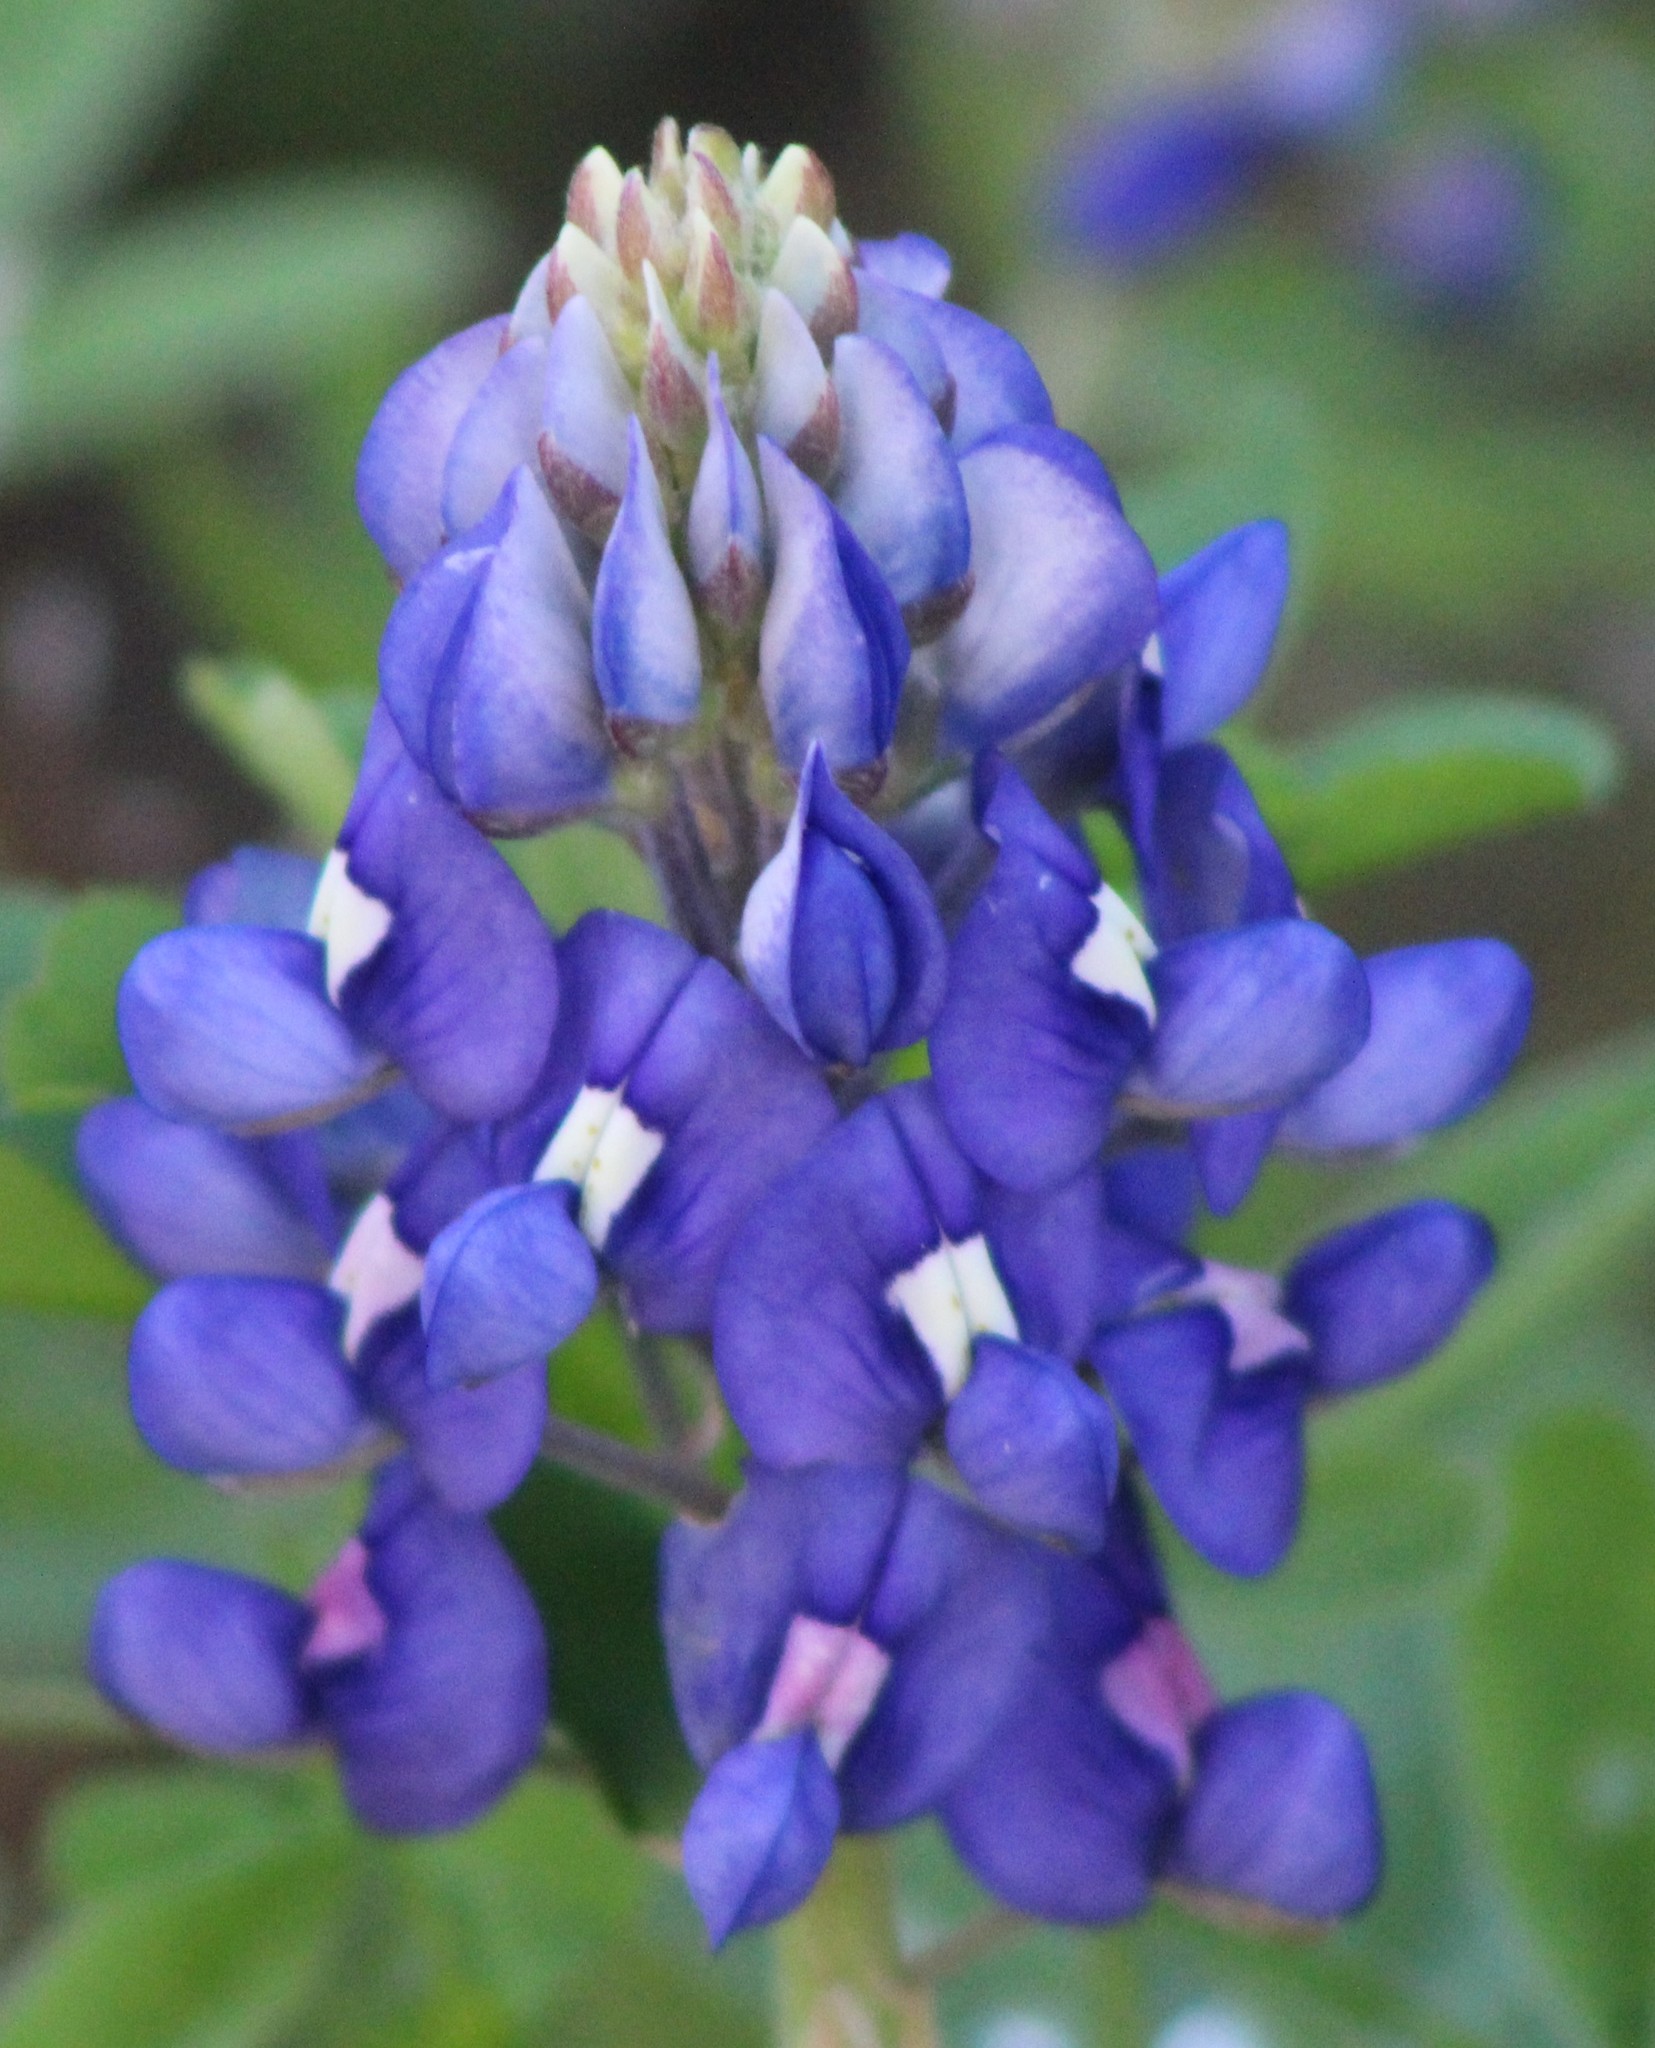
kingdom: Plantae
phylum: Tracheophyta
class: Magnoliopsida
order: Fabales
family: Fabaceae
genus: Lupinus
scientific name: Lupinus texensis
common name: Texas bluebonnet
